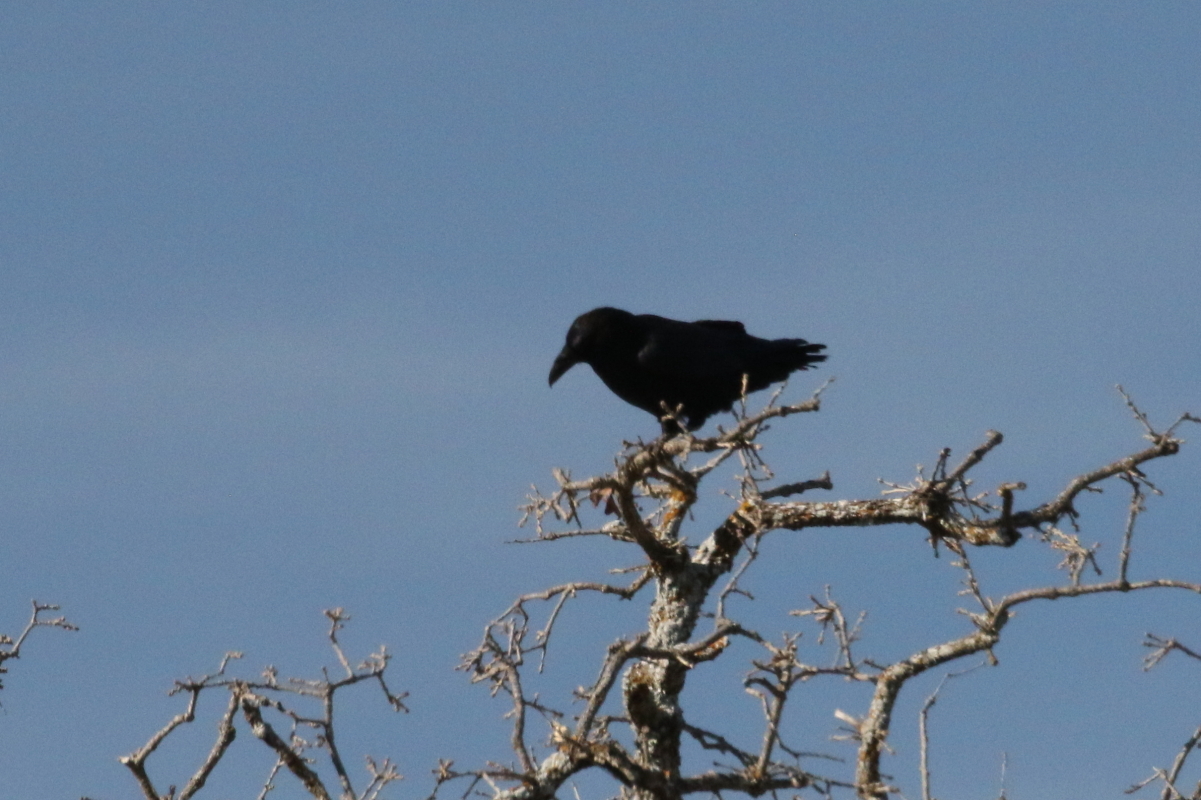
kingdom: Animalia
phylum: Chordata
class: Aves
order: Passeriformes
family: Corvidae
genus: Corvus
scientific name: Corvus corax
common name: Common raven
